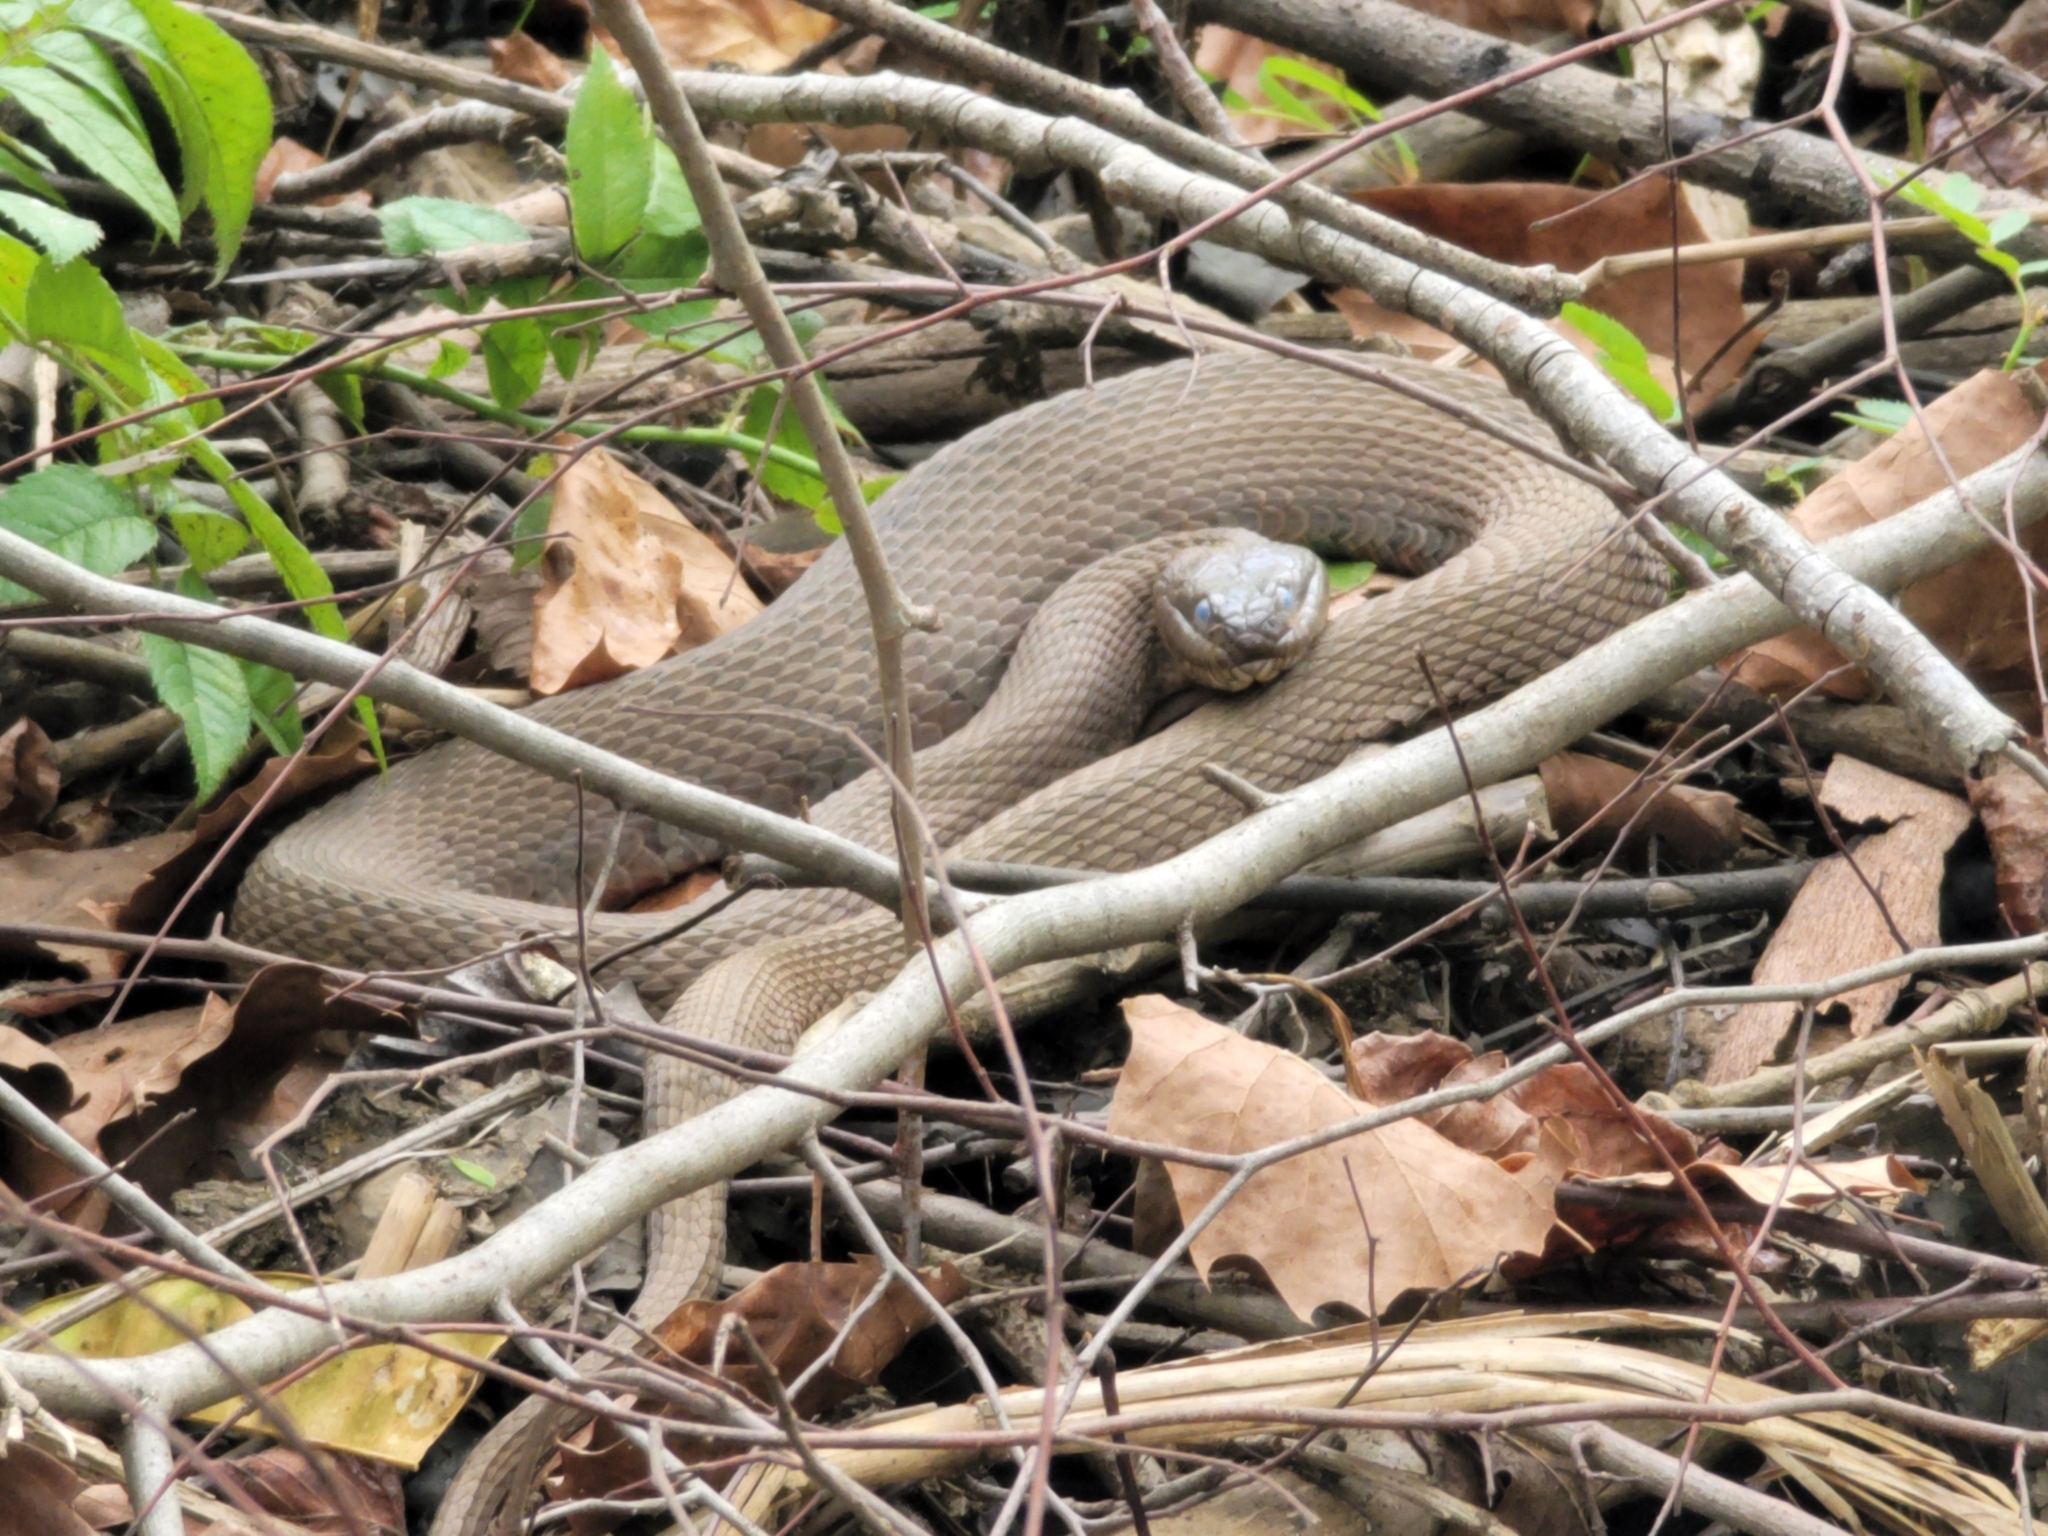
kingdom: Animalia
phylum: Chordata
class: Squamata
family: Colubridae
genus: Nerodia
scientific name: Nerodia sipedon
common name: Northern water snake
